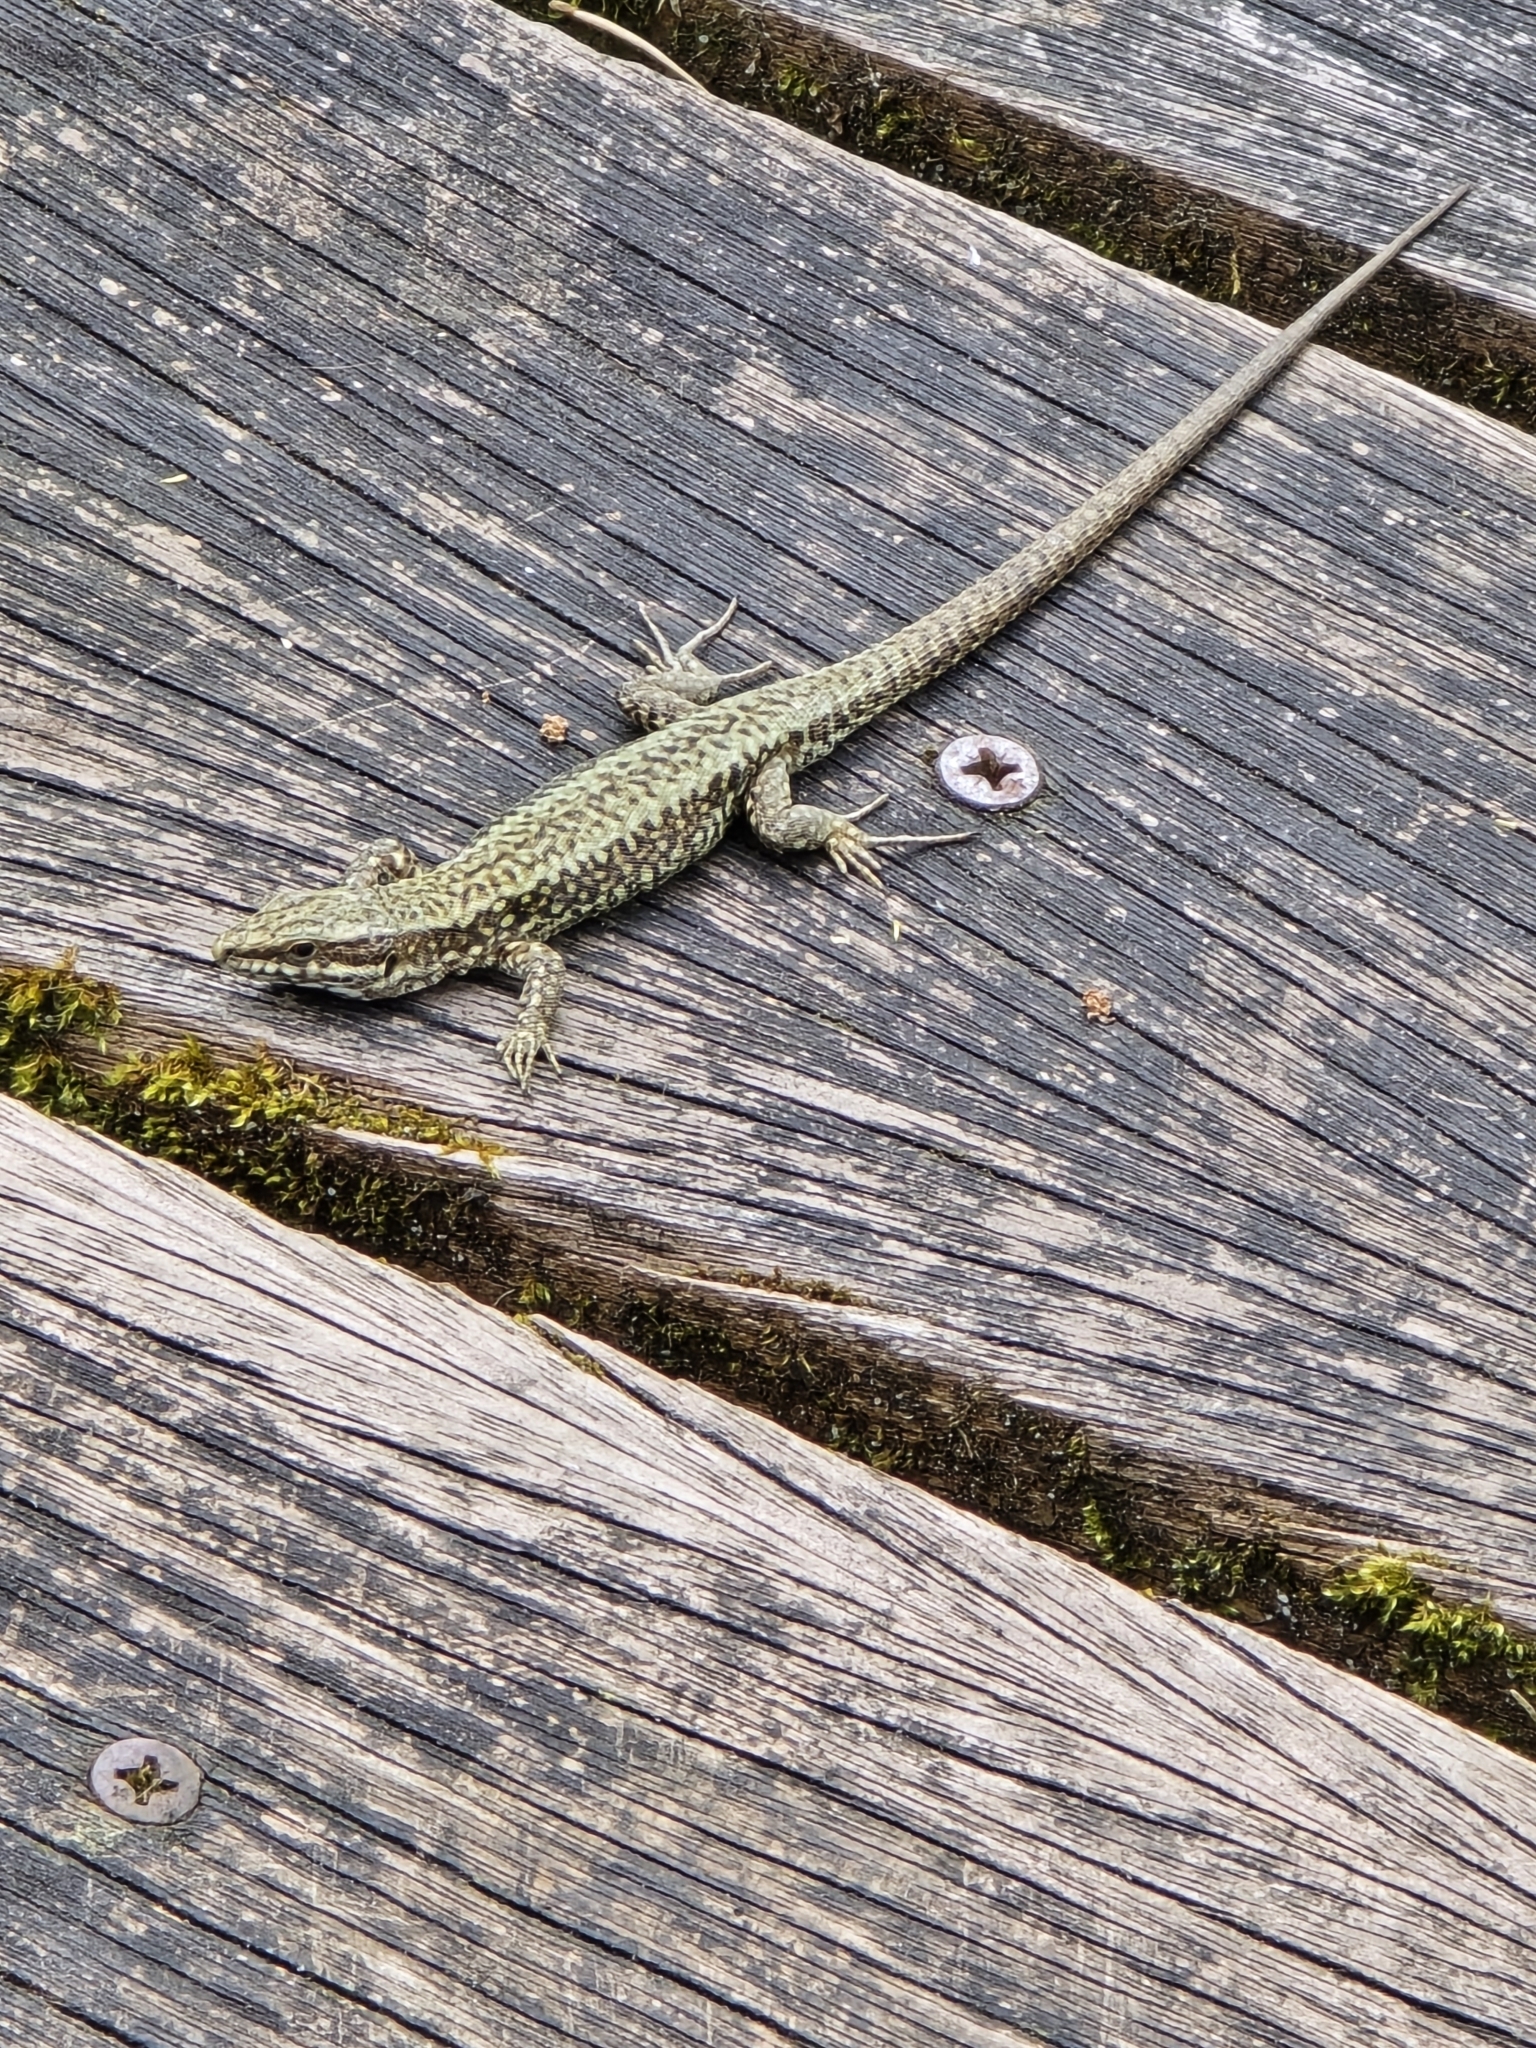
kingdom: Animalia
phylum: Chordata
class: Squamata
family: Lacertidae
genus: Podarcis
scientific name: Podarcis muralis
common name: Common wall lizard
